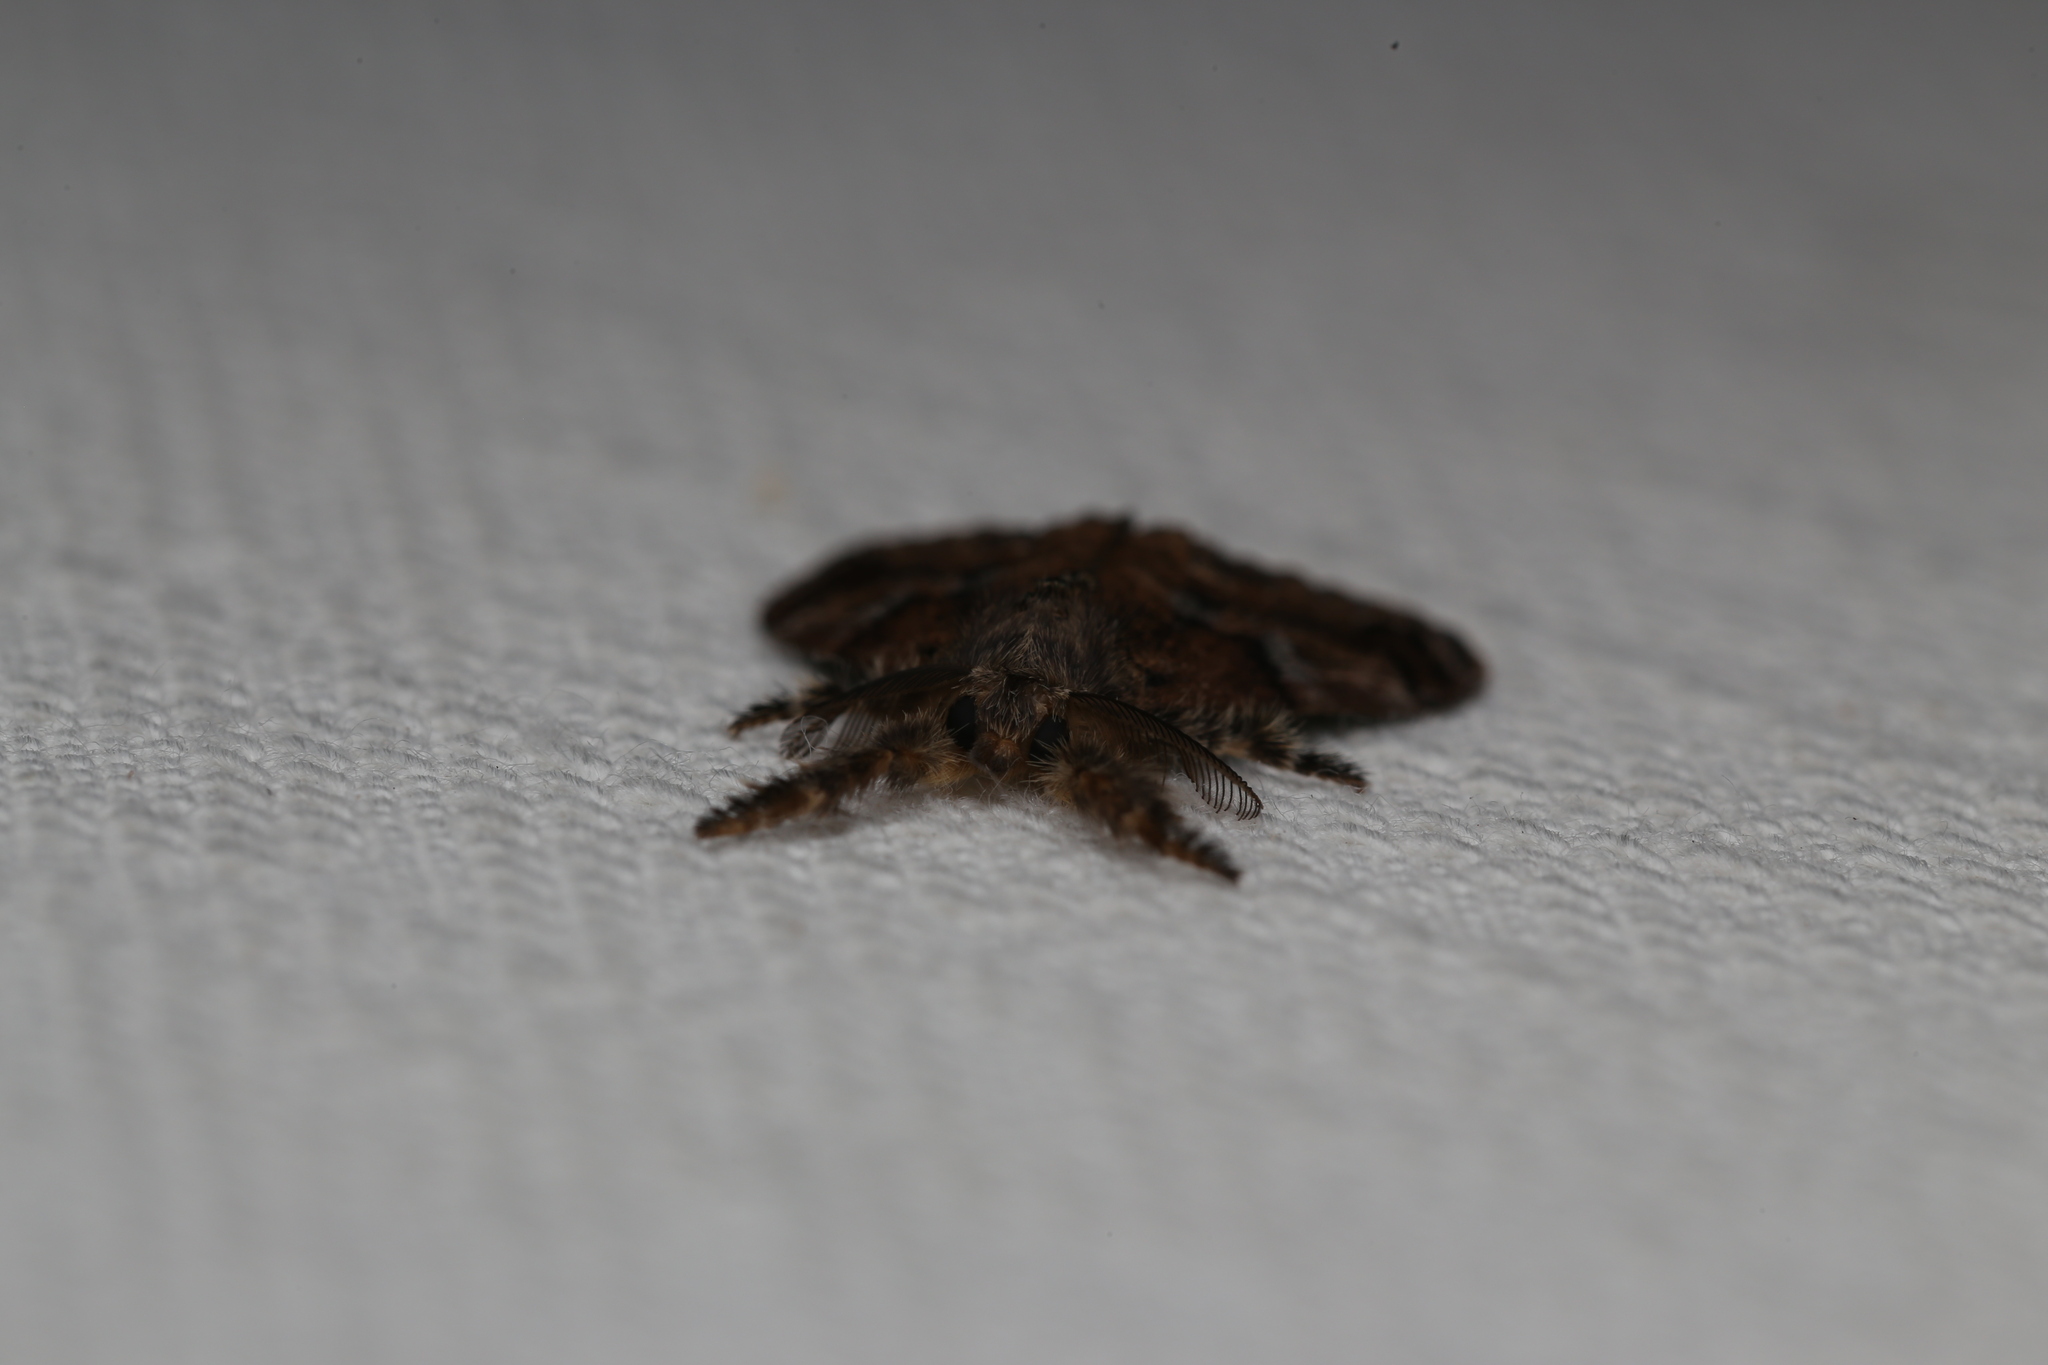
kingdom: Animalia
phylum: Arthropoda
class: Insecta
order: Lepidoptera
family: Erebidae
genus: Orgyia
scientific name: Orgyia australis
